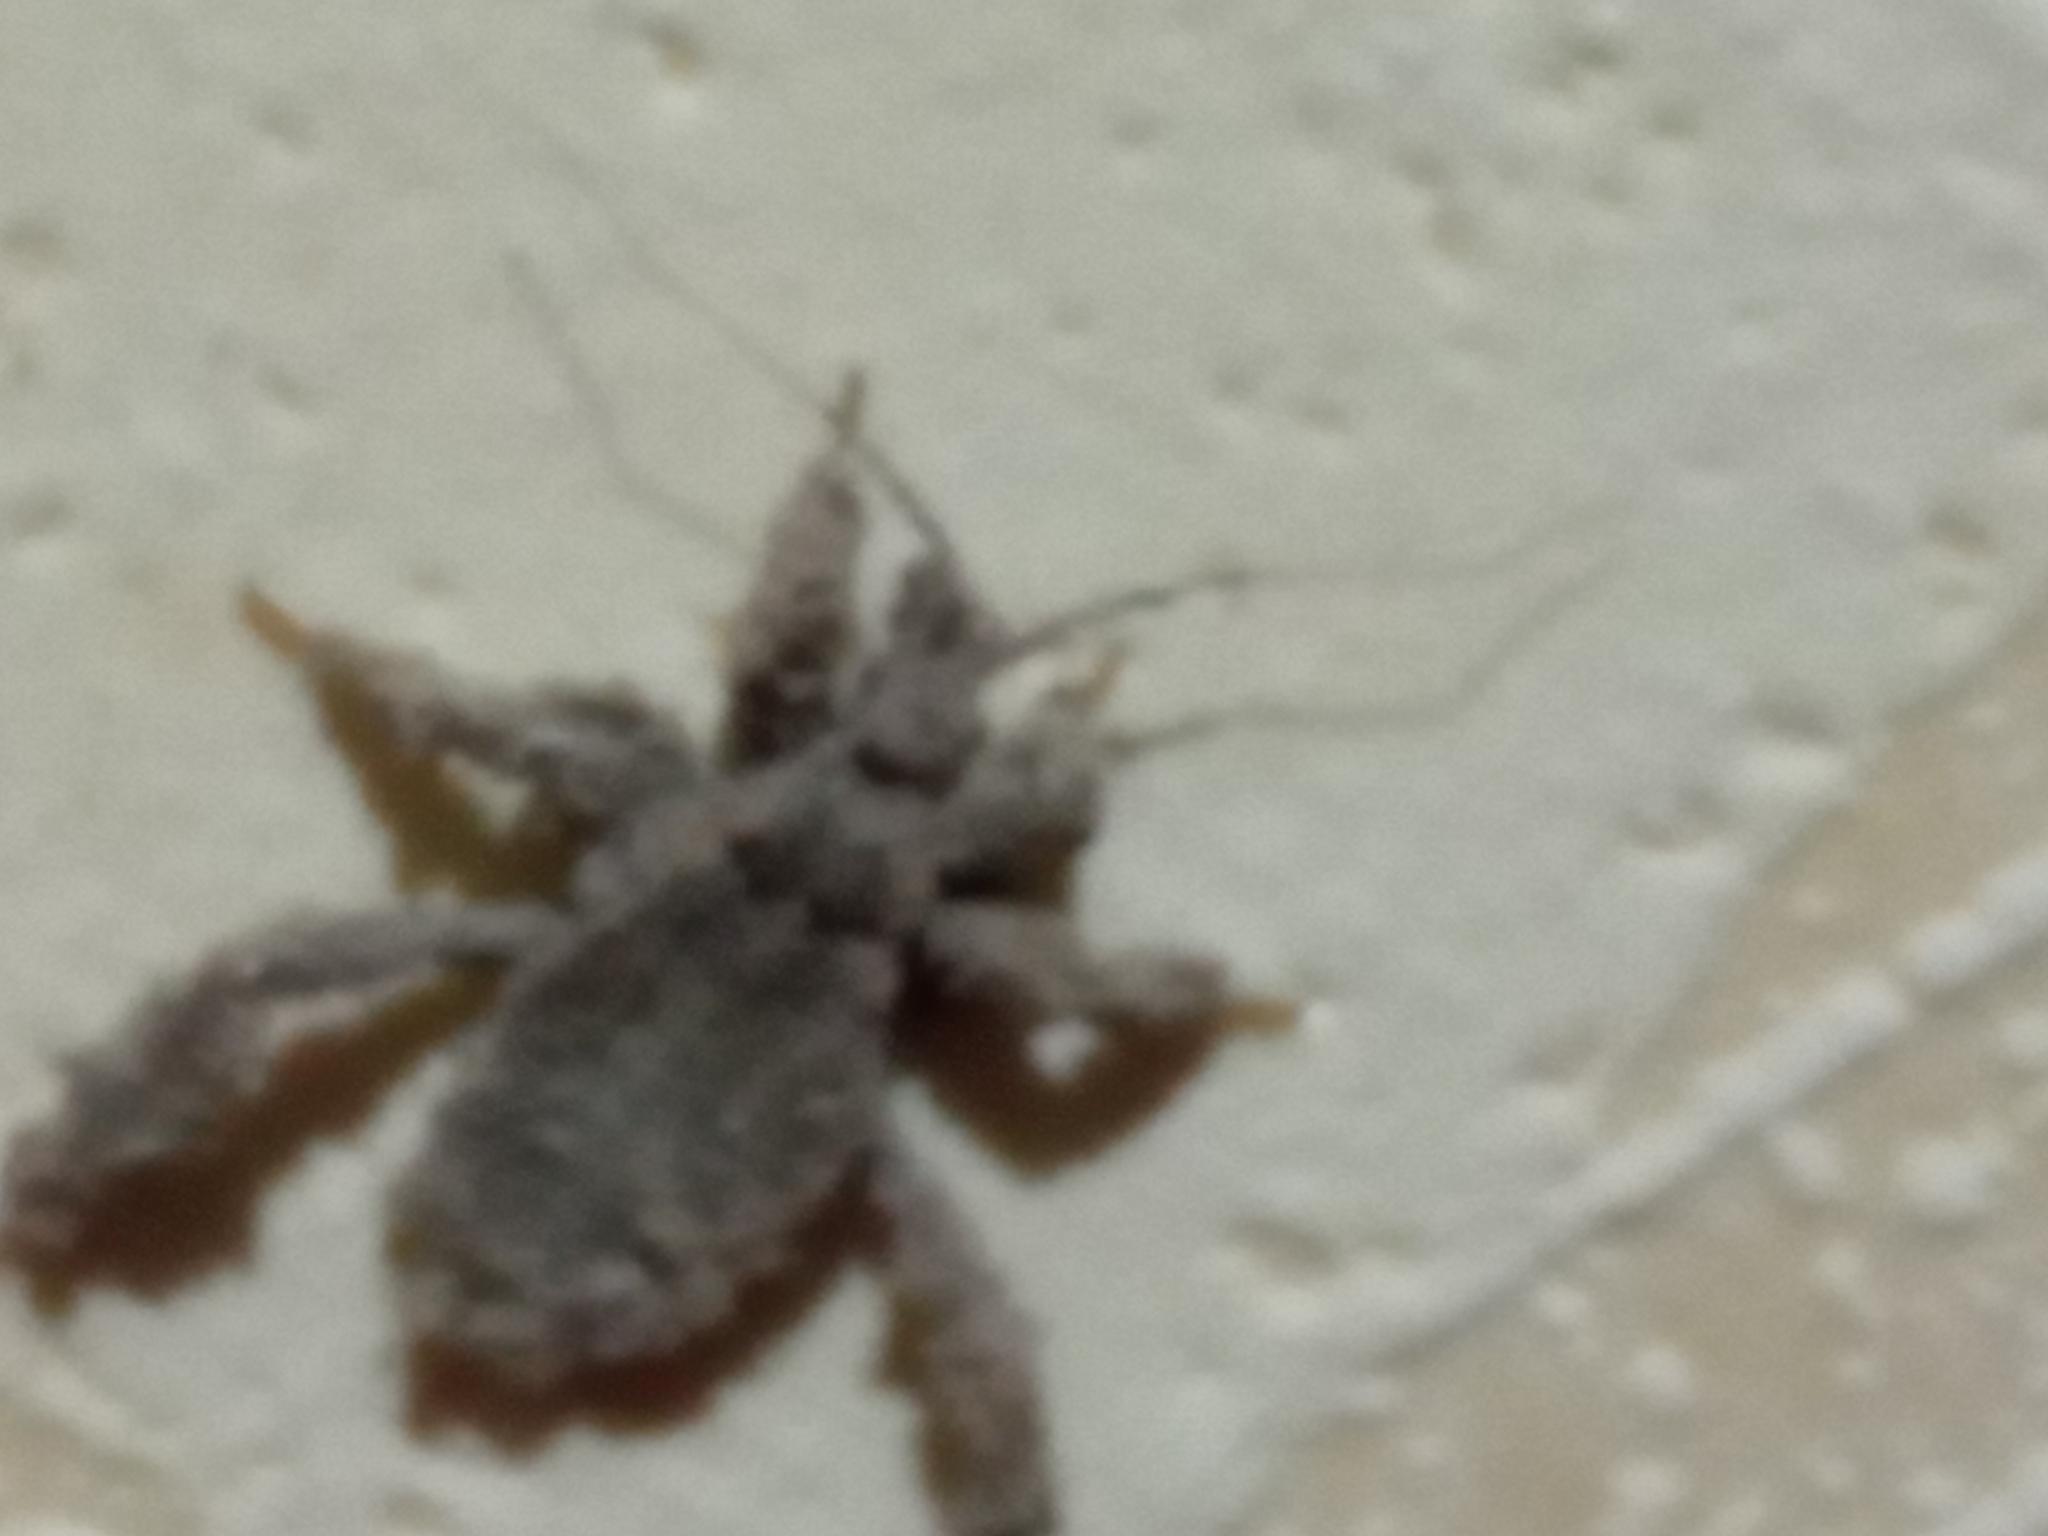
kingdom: Animalia
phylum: Arthropoda
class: Insecta
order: Hemiptera
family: Reduviidae
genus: Reduvius
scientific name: Reduvius personatus
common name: Masked hunter
